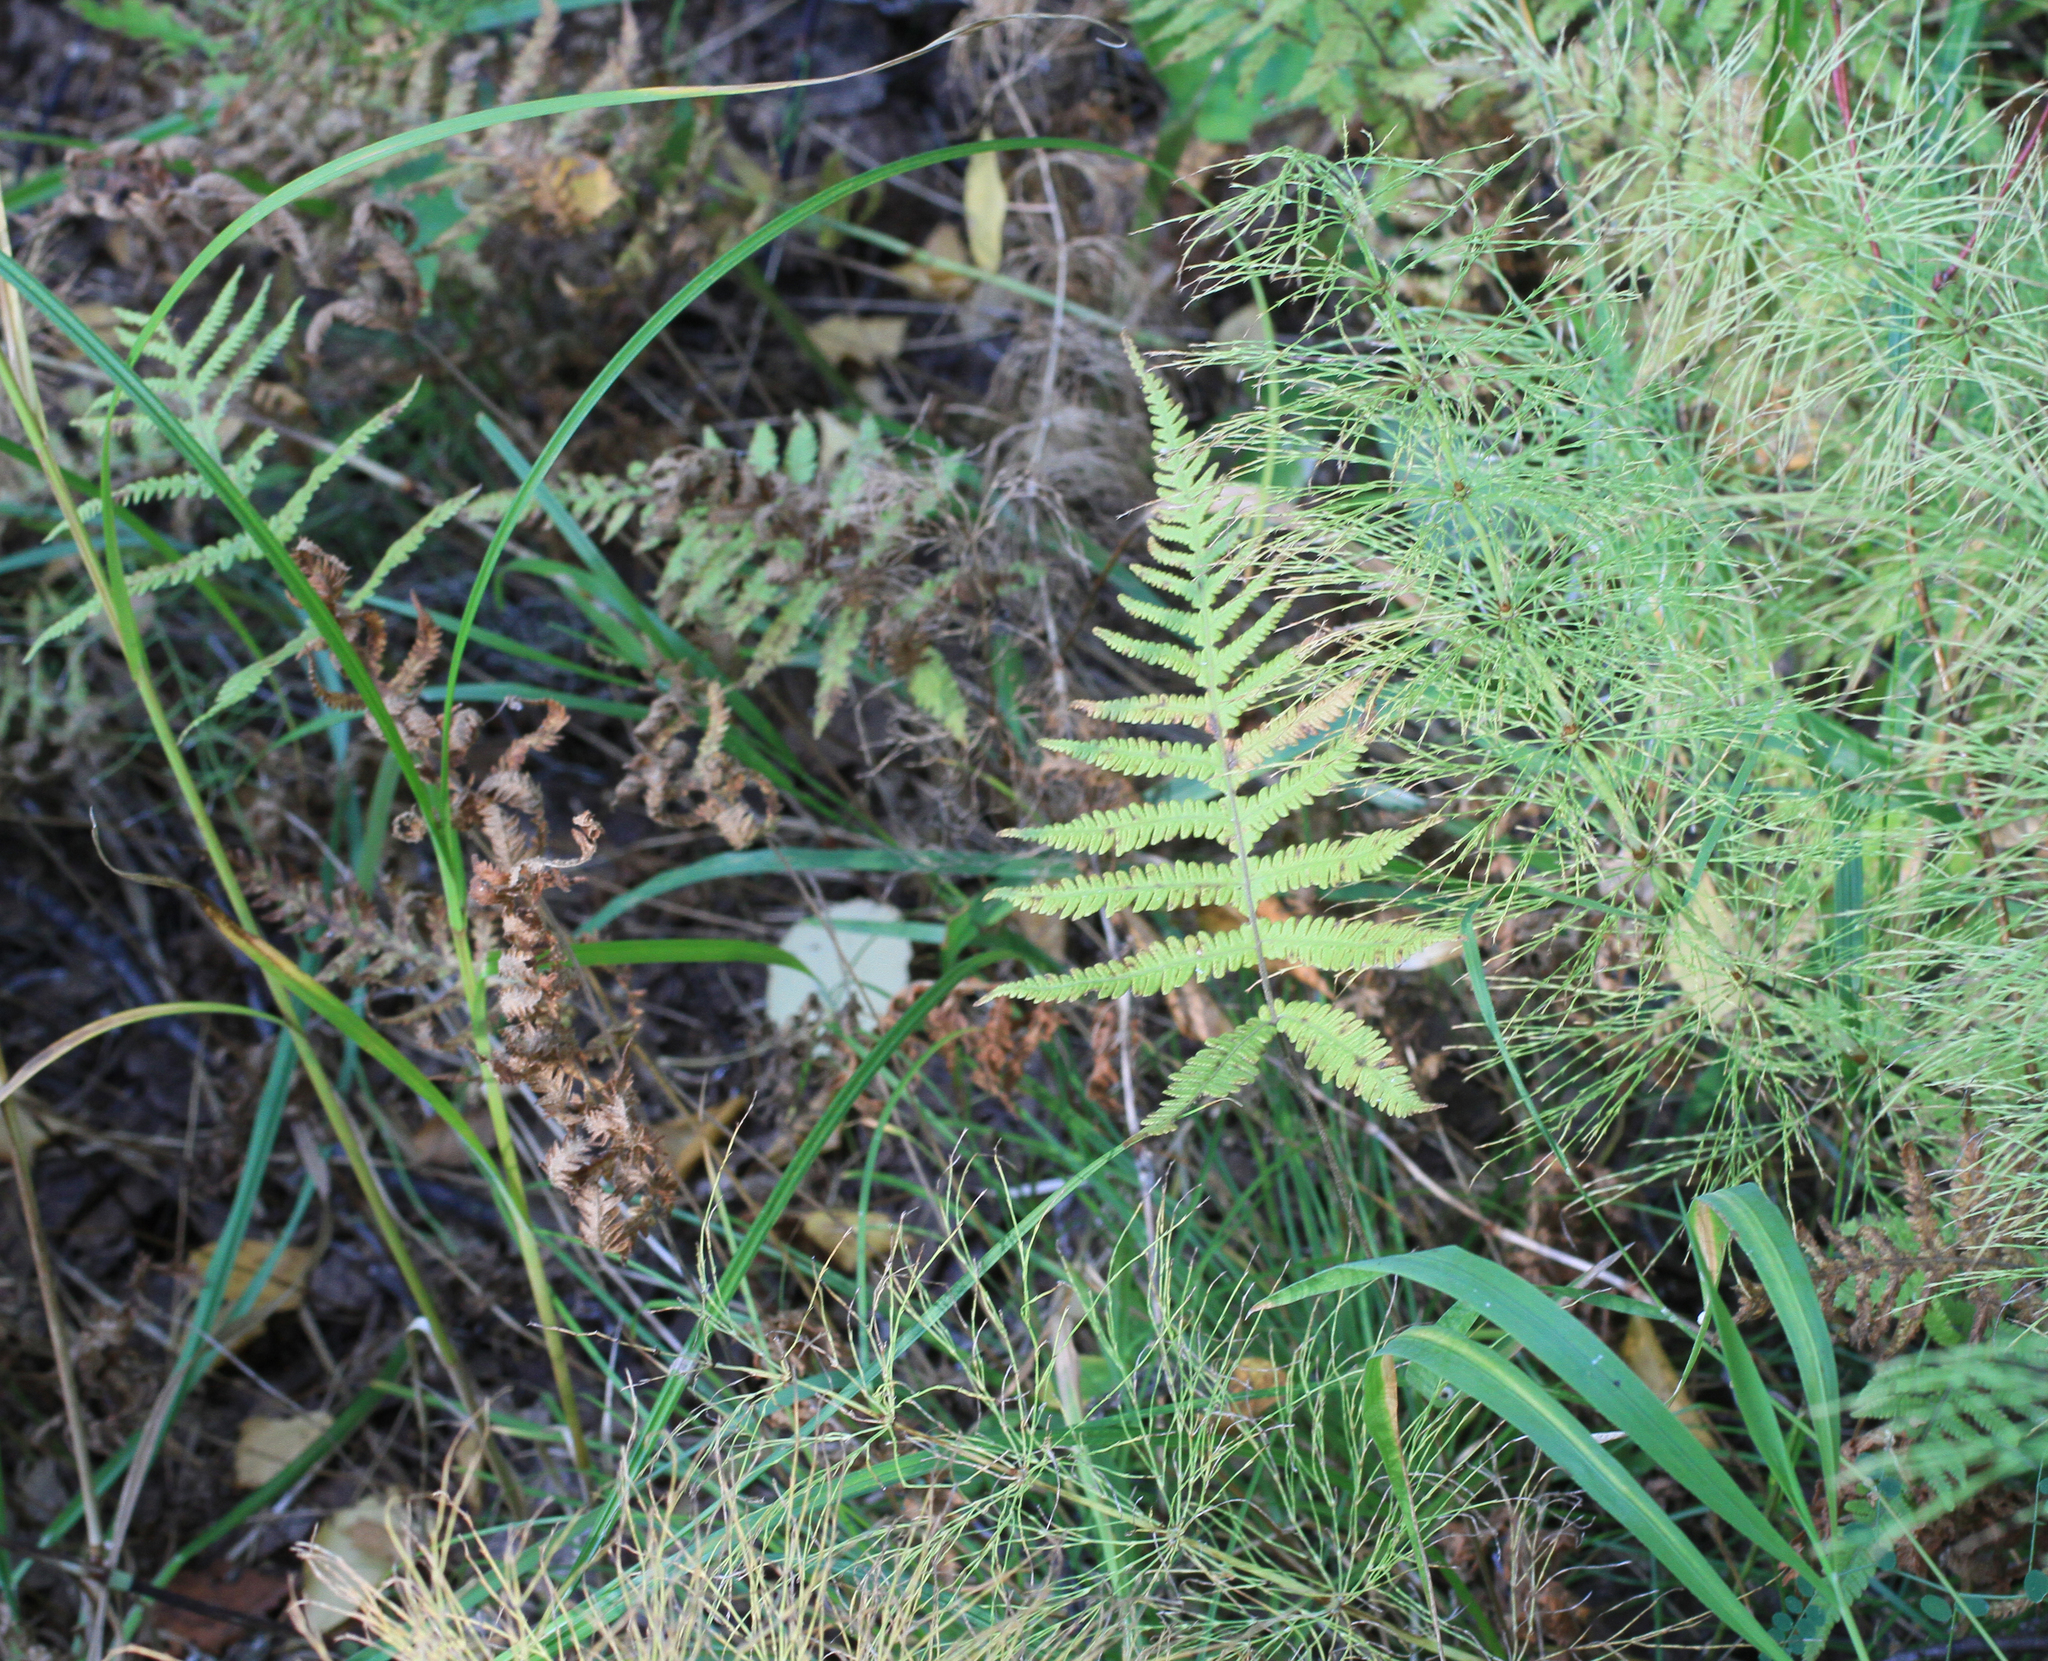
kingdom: Plantae
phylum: Tracheophyta
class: Polypodiopsida
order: Polypodiales
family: Thelypteridaceae
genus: Phegopteris
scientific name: Phegopteris connectilis
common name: Beech fern
